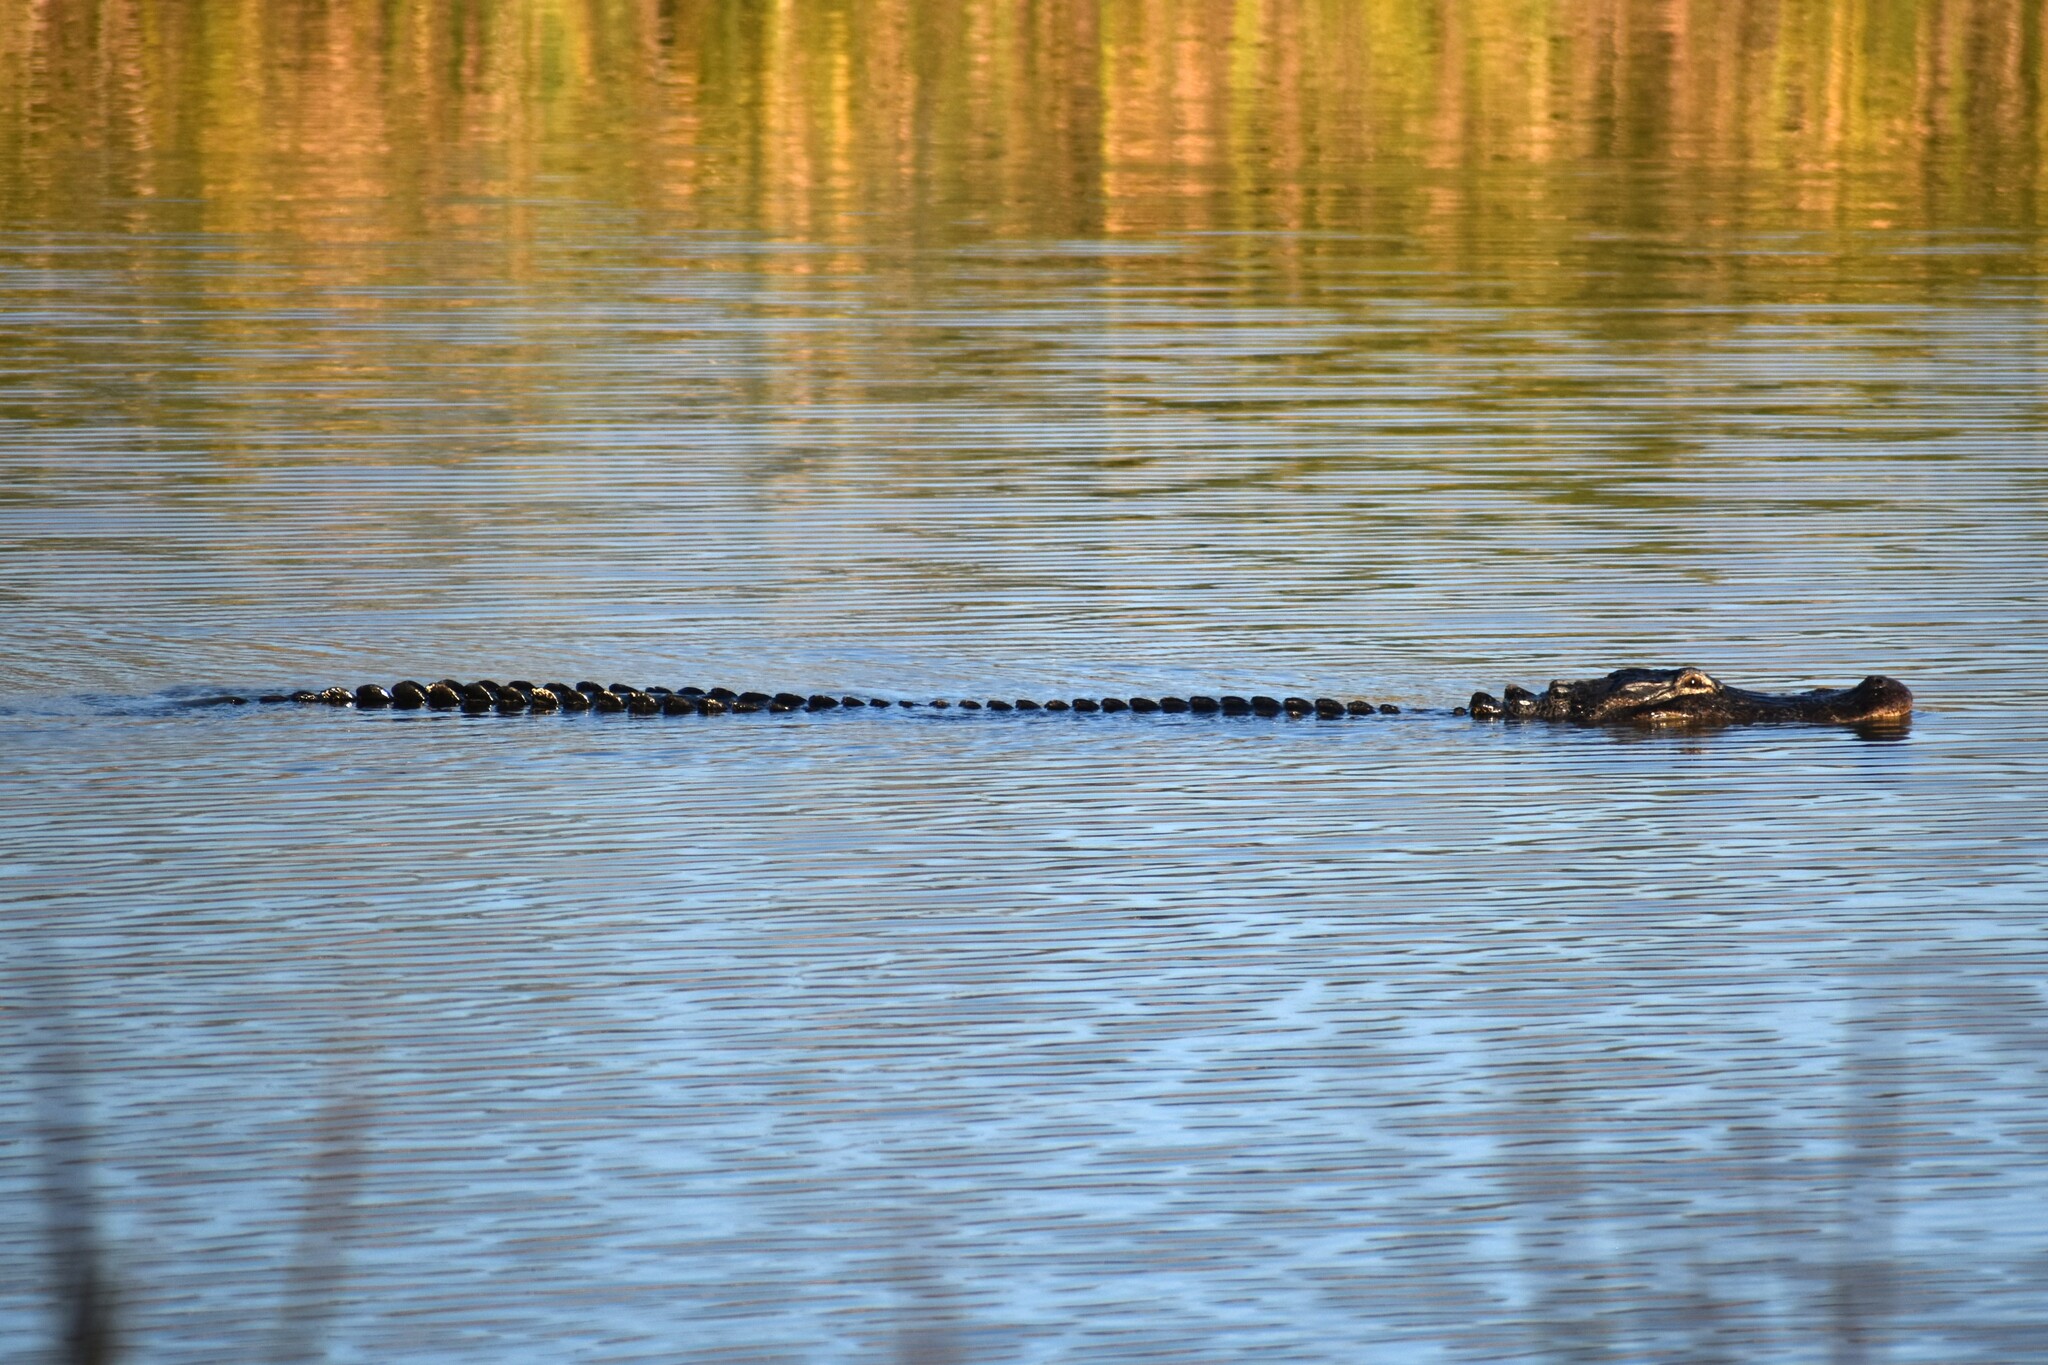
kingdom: Animalia
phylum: Chordata
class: Crocodylia
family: Alligatoridae
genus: Alligator
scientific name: Alligator mississippiensis
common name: American alligator
